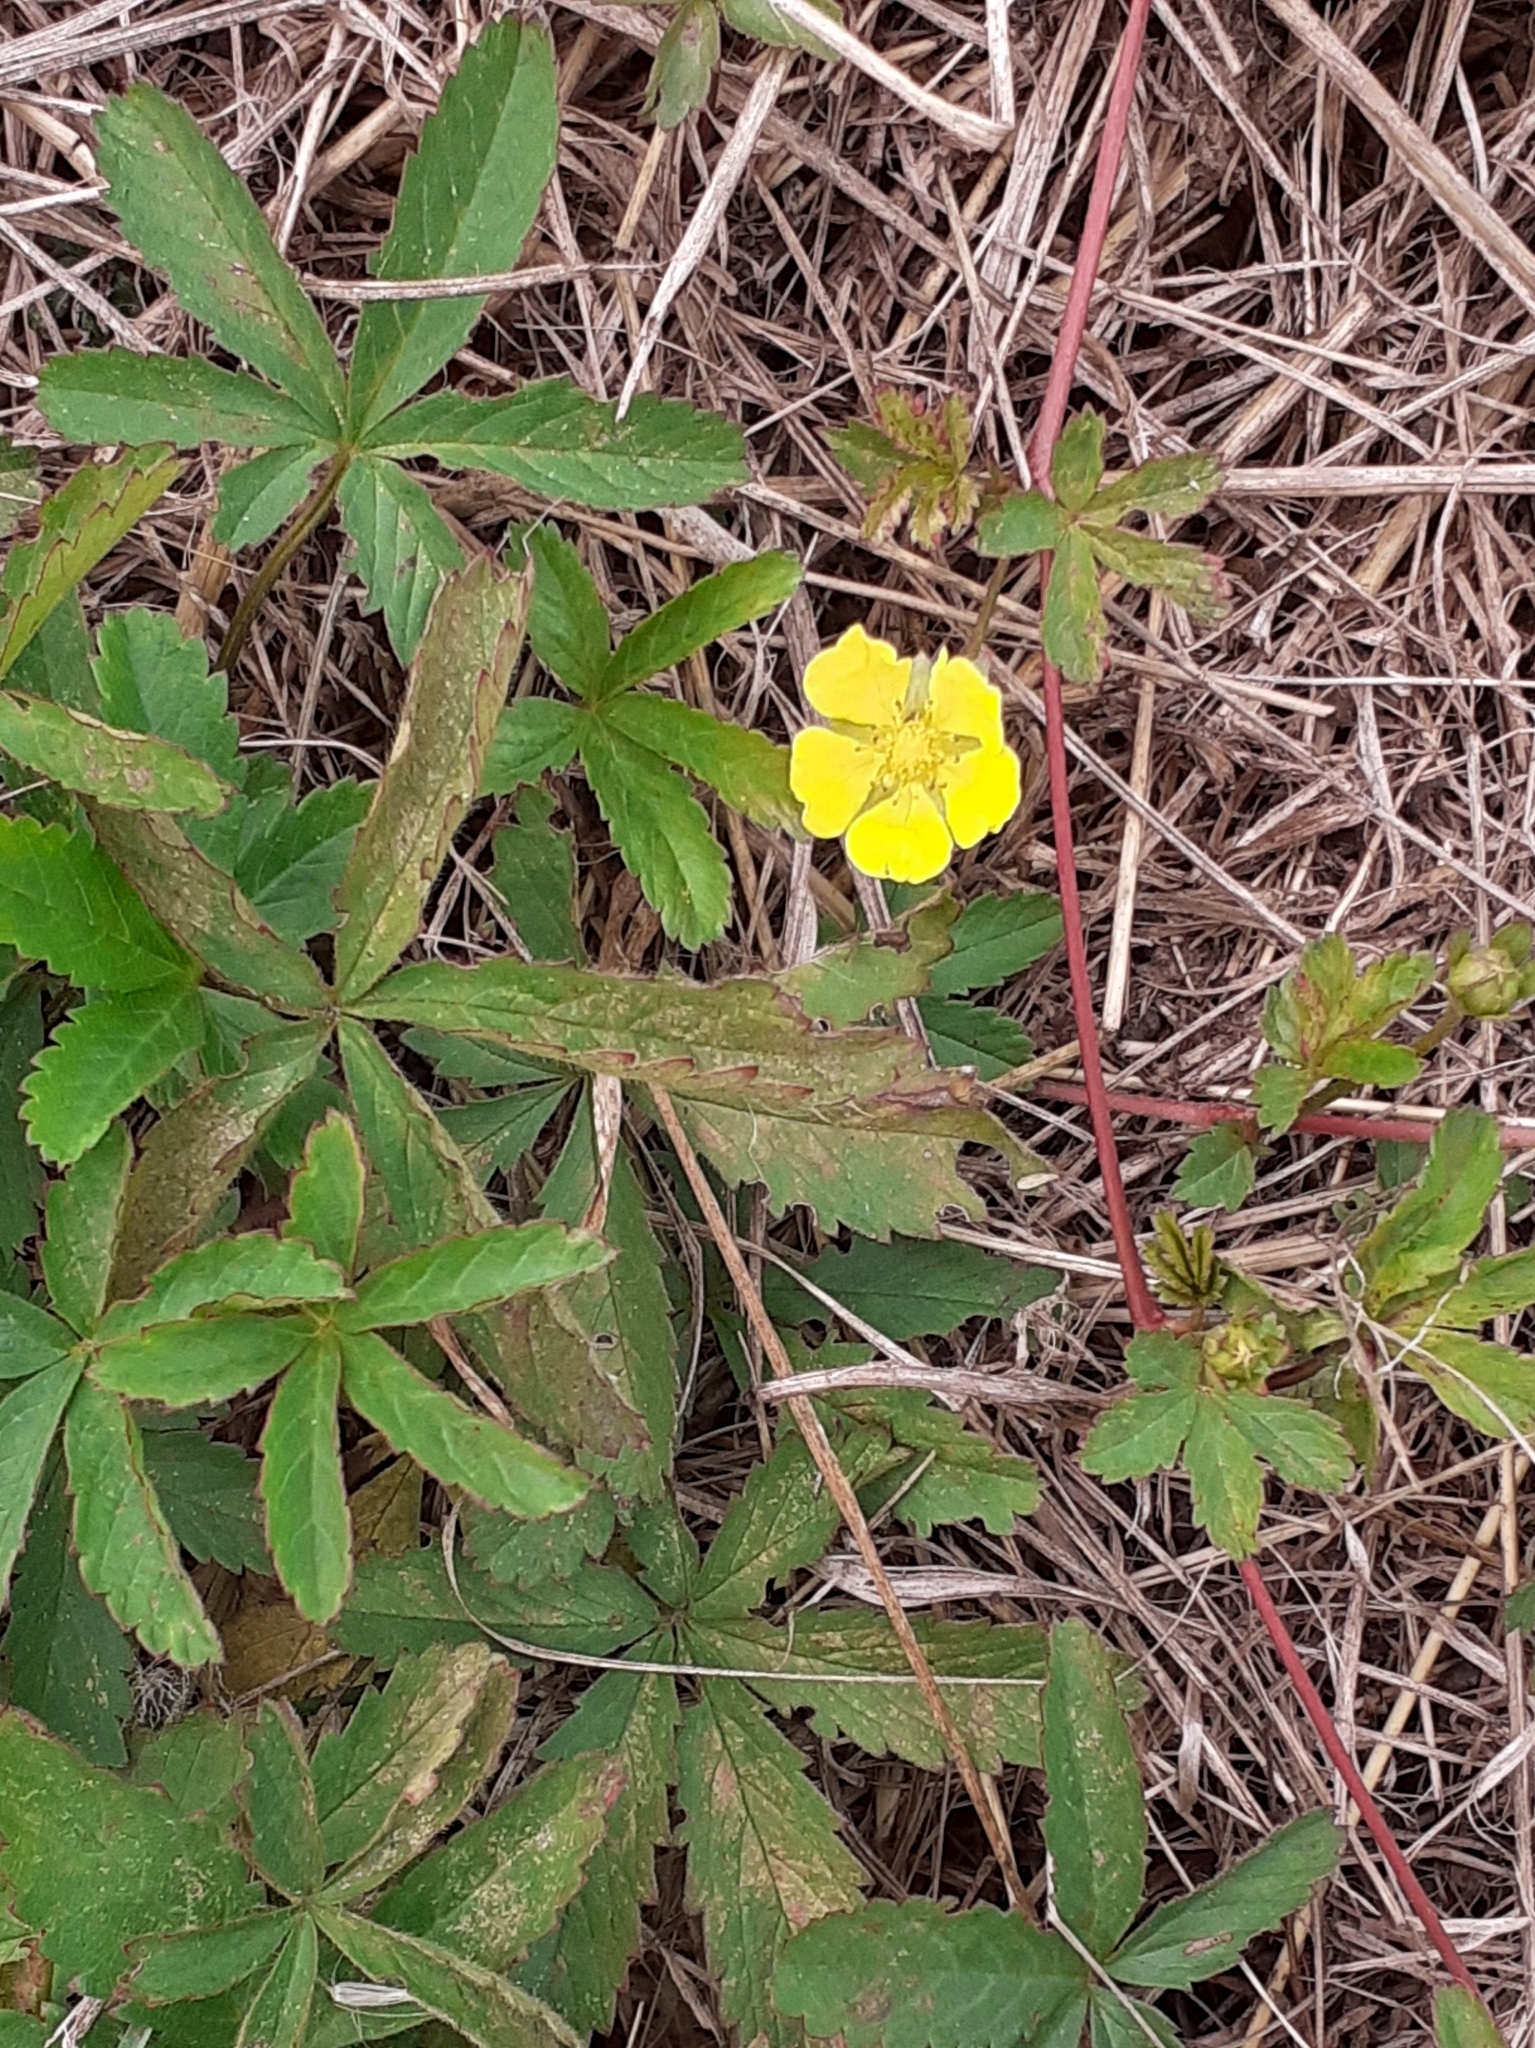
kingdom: Plantae
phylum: Tracheophyta
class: Magnoliopsida
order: Rosales
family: Rosaceae
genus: Potentilla
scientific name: Potentilla reptans
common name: Creeping cinquefoil
